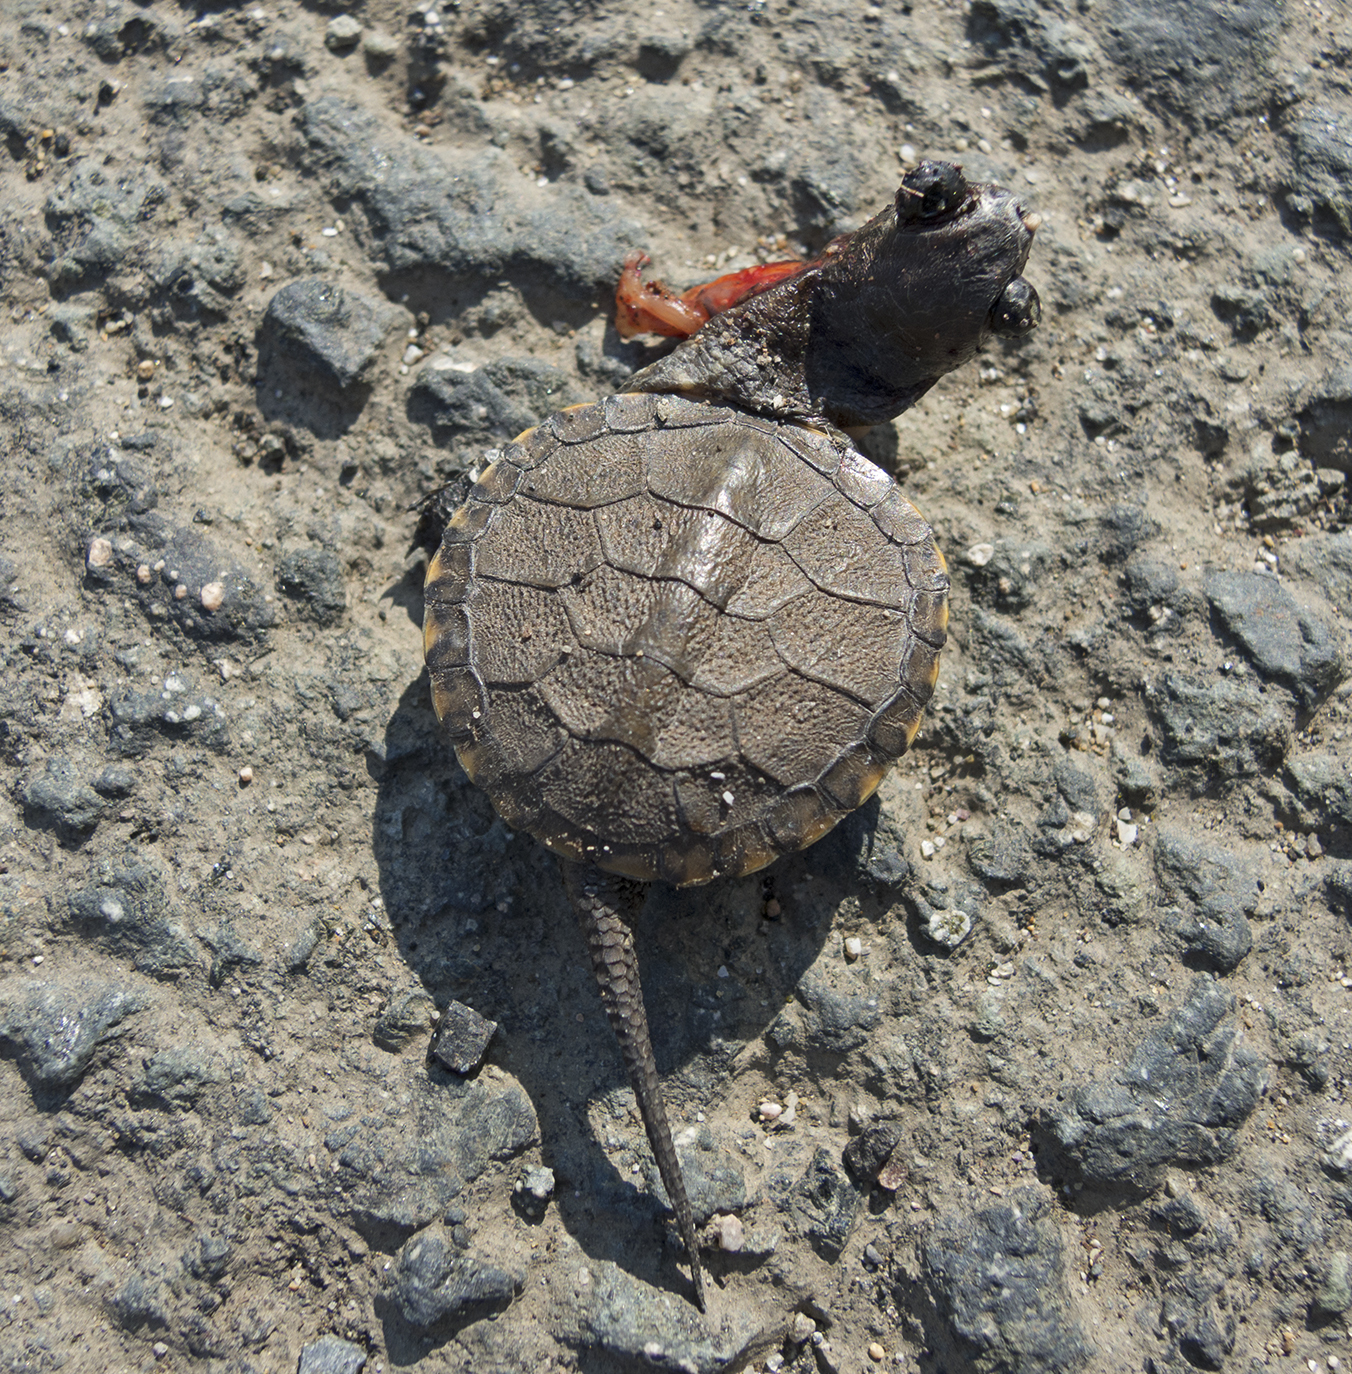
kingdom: Animalia
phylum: Chordata
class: Testudines
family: Emydidae
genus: Emys
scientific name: Emys orbicularis
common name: European pond turtle
